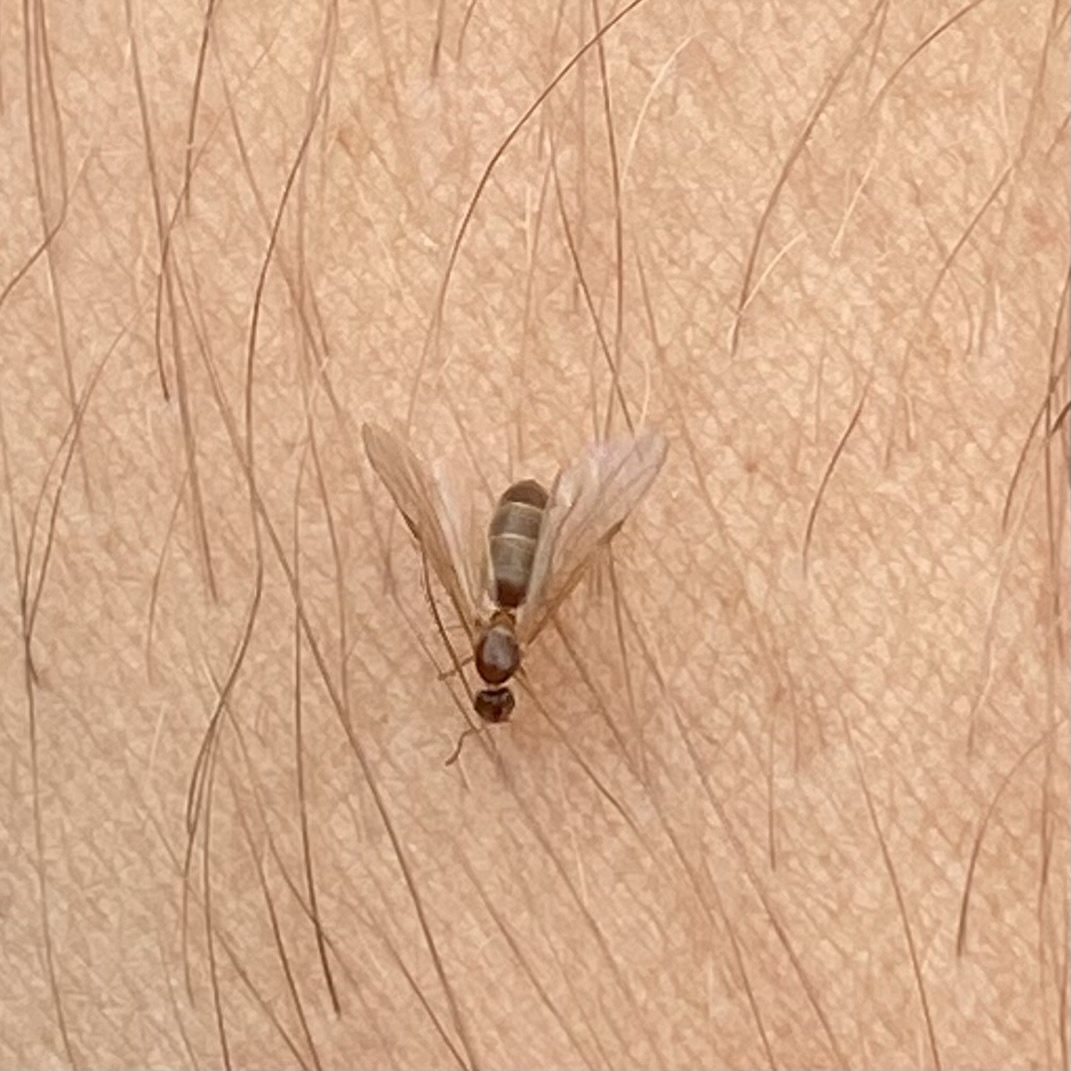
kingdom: Animalia
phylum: Arthropoda
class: Insecta
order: Hymenoptera
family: Formicidae
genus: Brachymyrmex
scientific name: Brachymyrmex depilis
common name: Hairless rover ant
